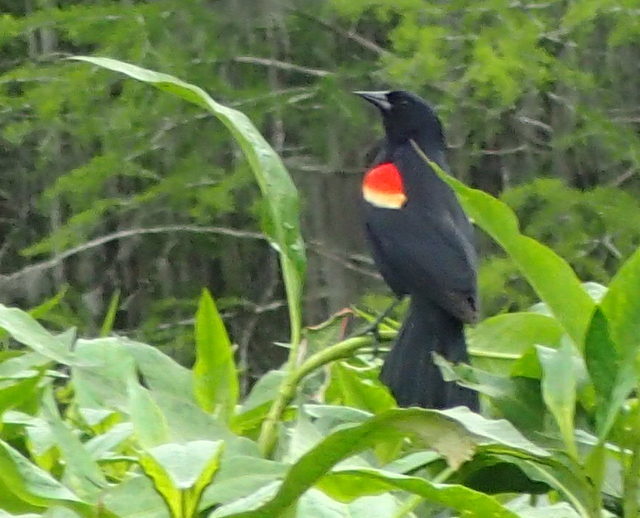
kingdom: Animalia
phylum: Chordata
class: Aves
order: Passeriformes
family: Icteridae
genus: Agelaius
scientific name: Agelaius phoeniceus
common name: Red-winged blackbird
